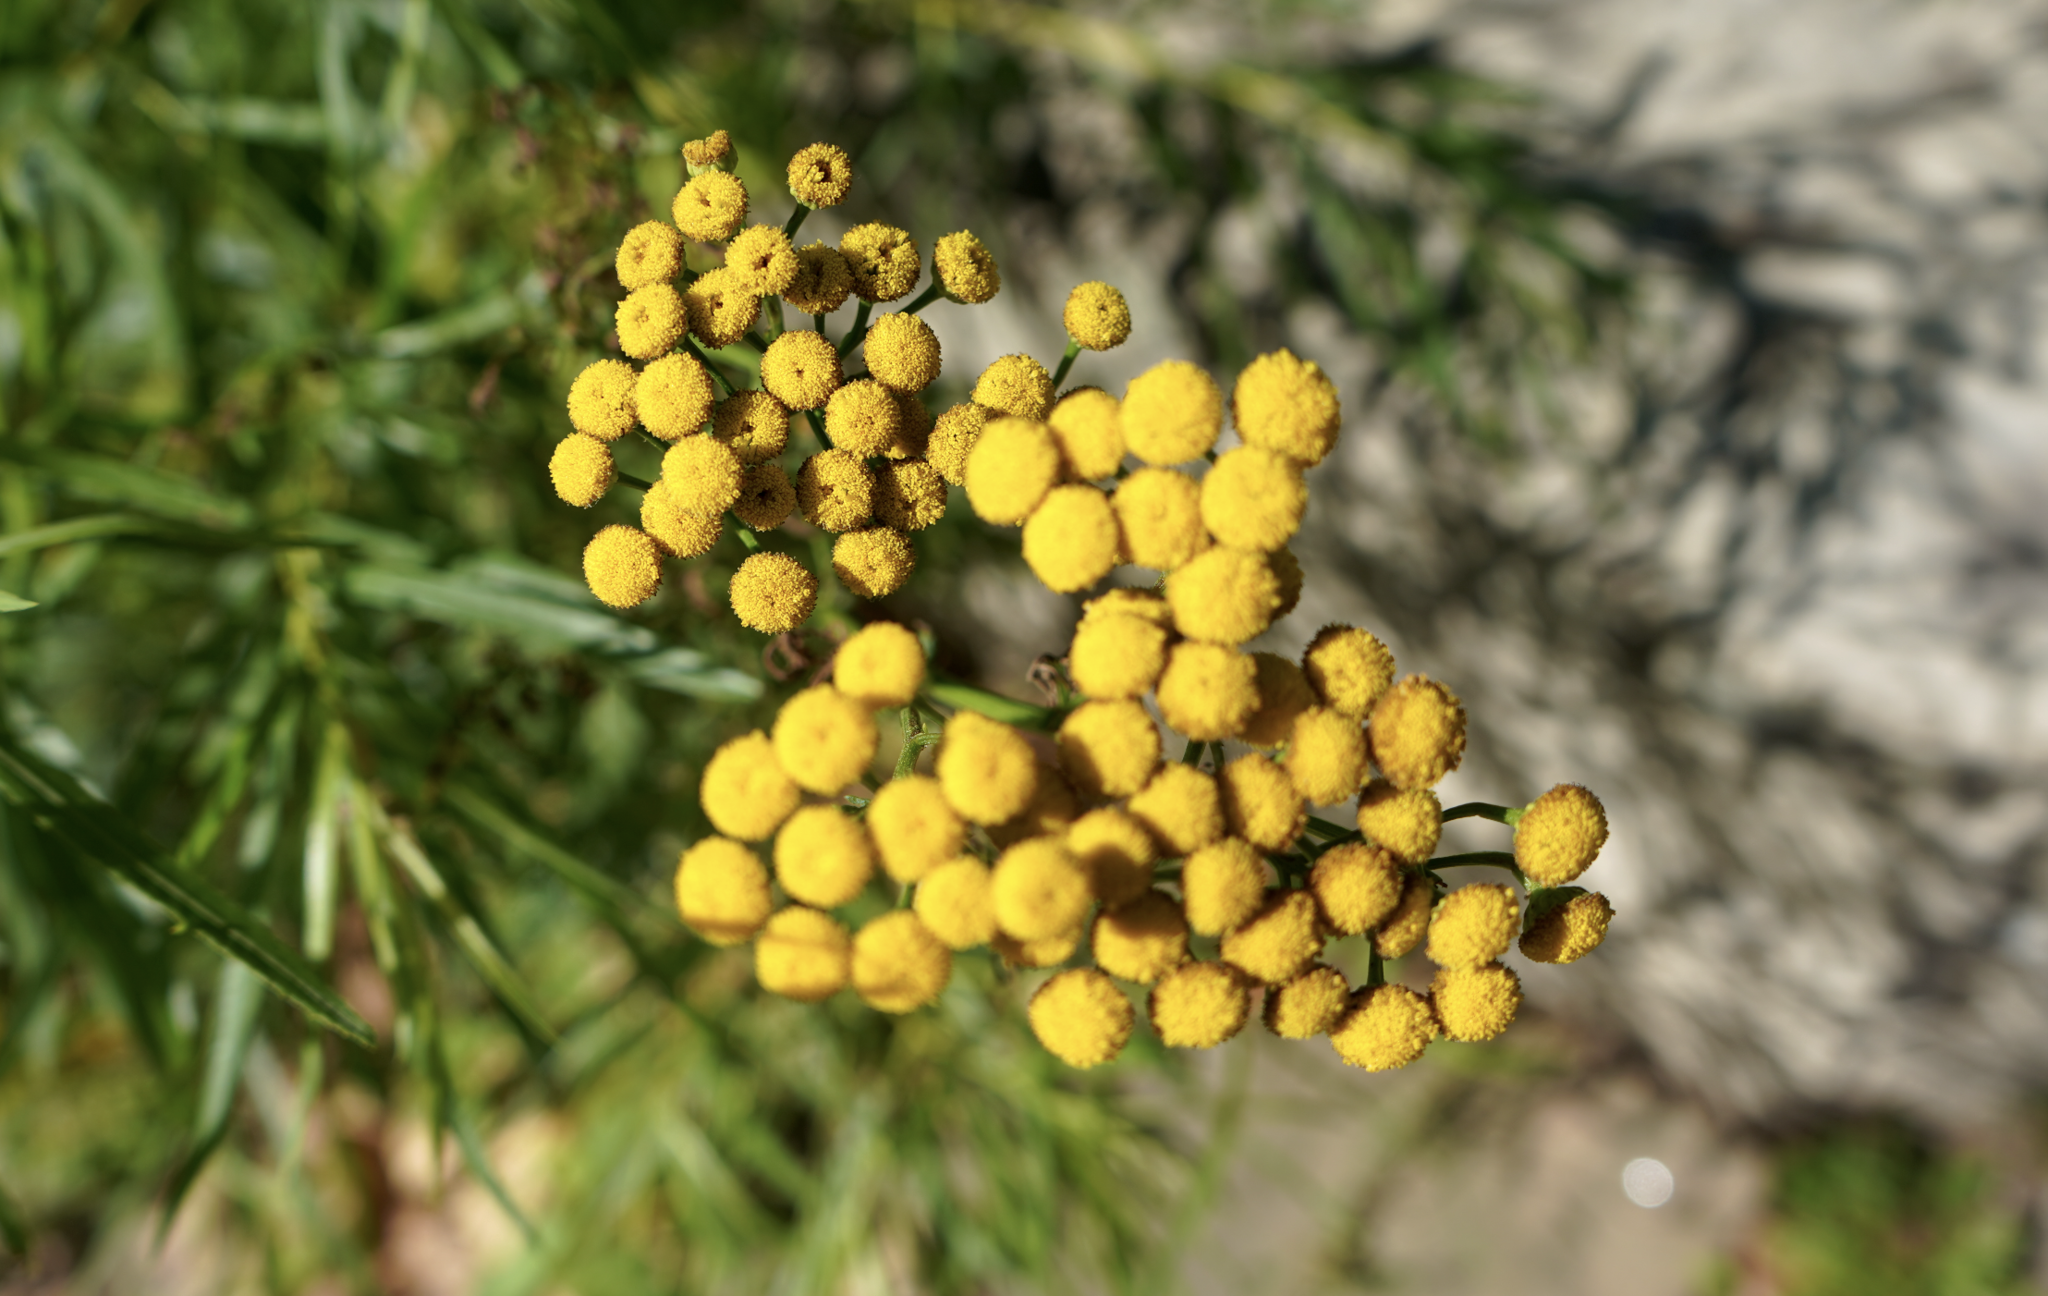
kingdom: Plantae
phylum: Tracheophyta
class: Magnoliopsida
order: Asterales
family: Asteraceae
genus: Tanacetum
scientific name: Tanacetum vulgare
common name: Common tansy
